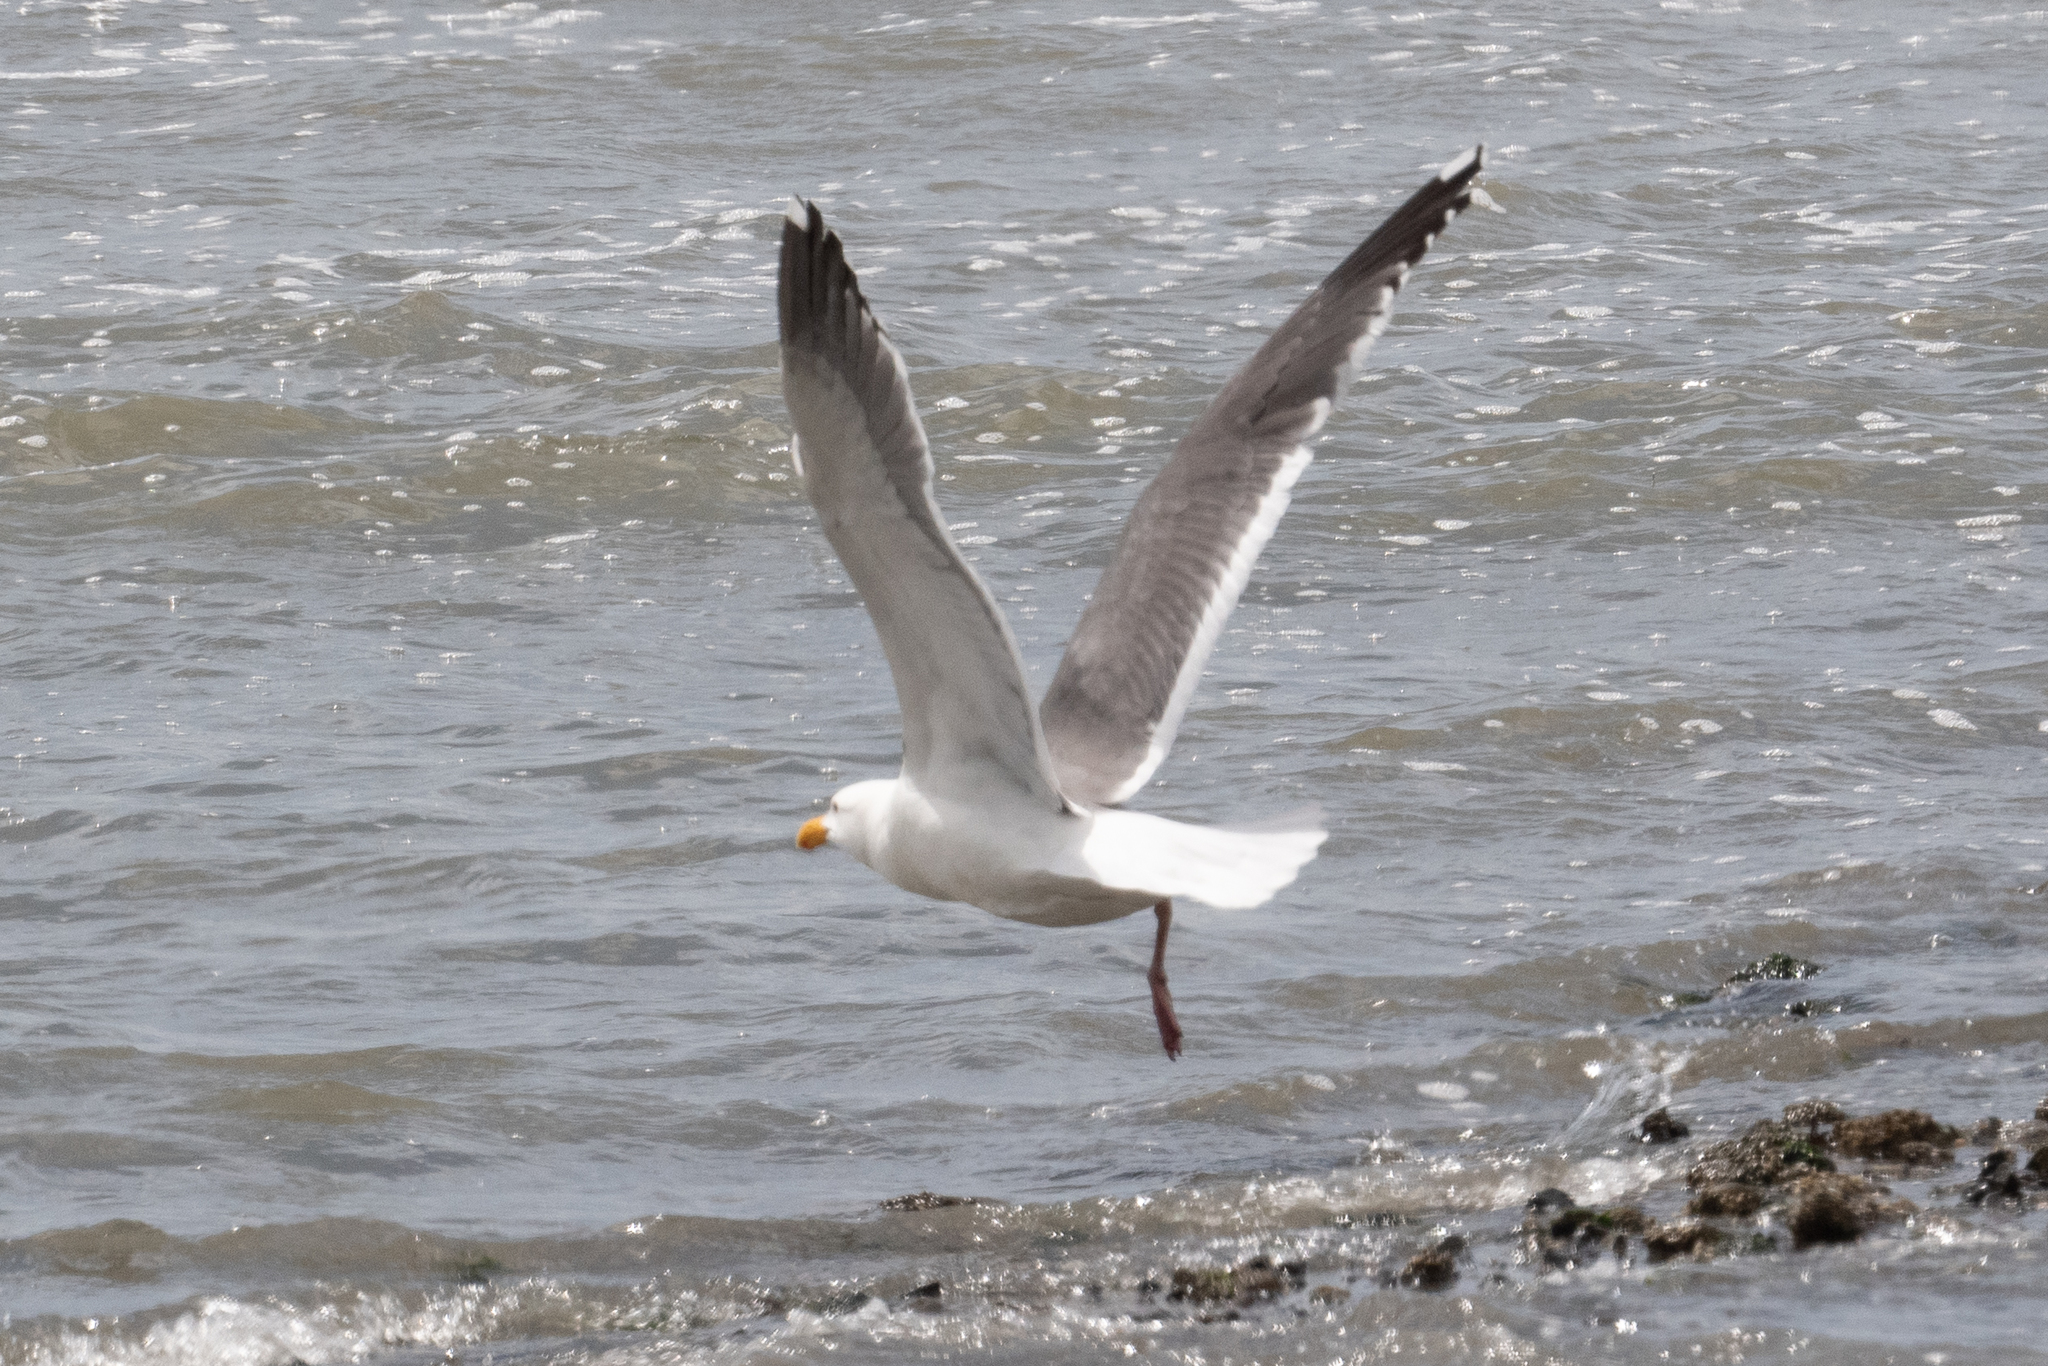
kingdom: Animalia
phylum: Chordata
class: Aves
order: Charadriiformes
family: Laridae
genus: Larus
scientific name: Larus occidentalis
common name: Western gull
